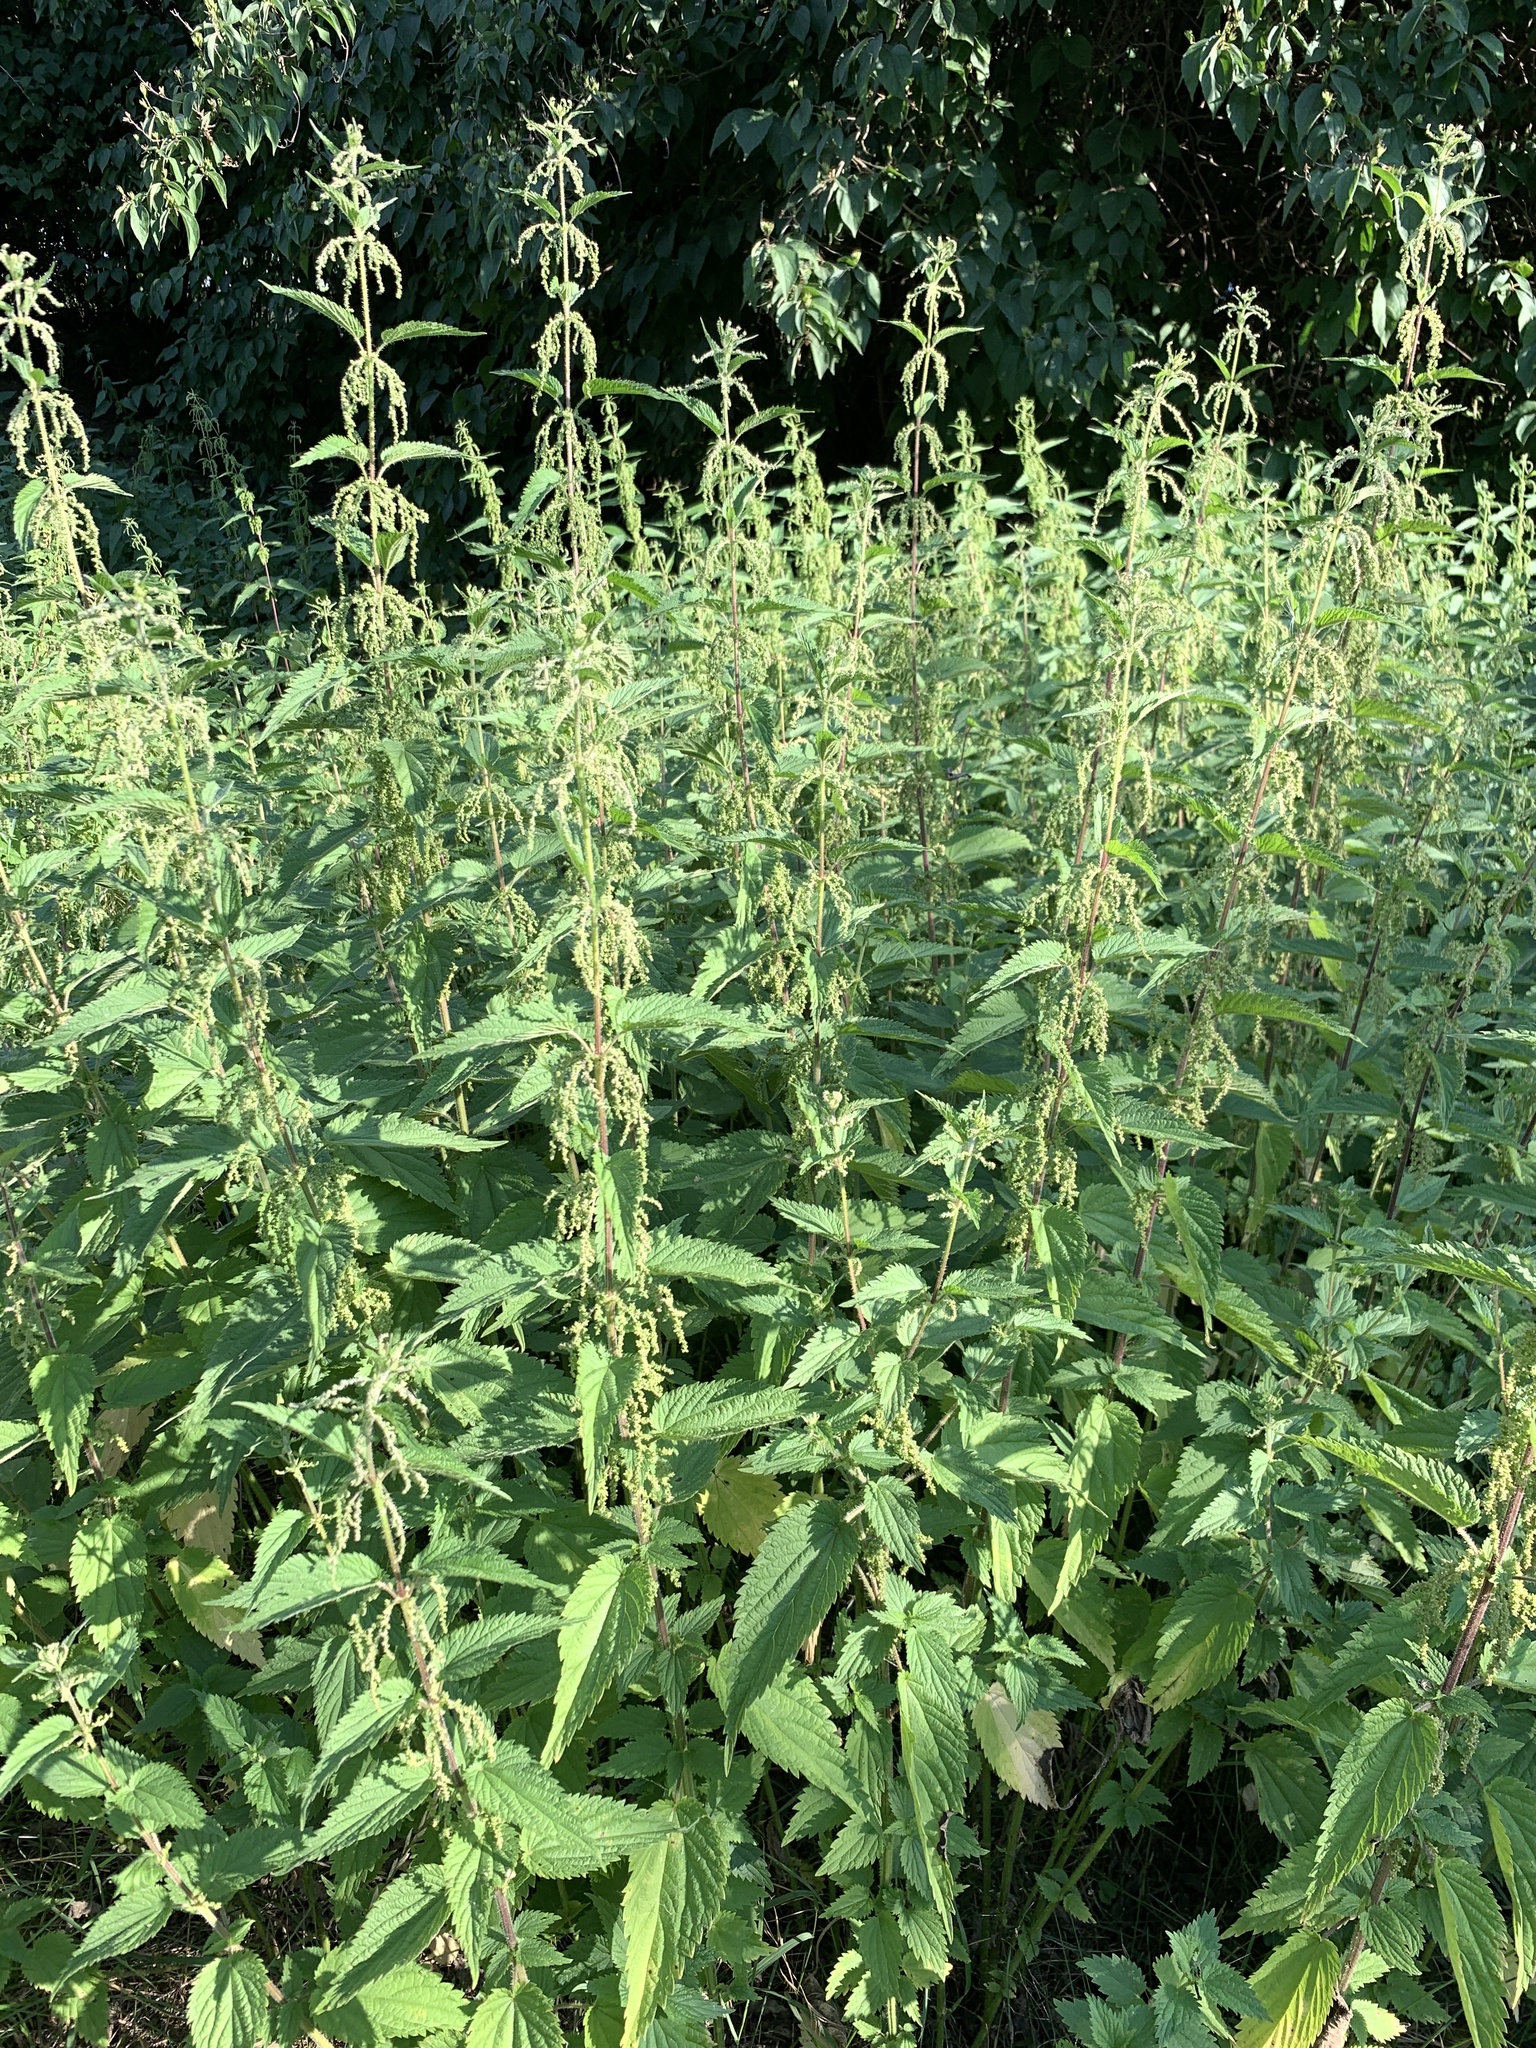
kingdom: Plantae
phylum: Tracheophyta
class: Magnoliopsida
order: Rosales
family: Urticaceae
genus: Urtica
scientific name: Urtica dioica
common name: Common nettle
